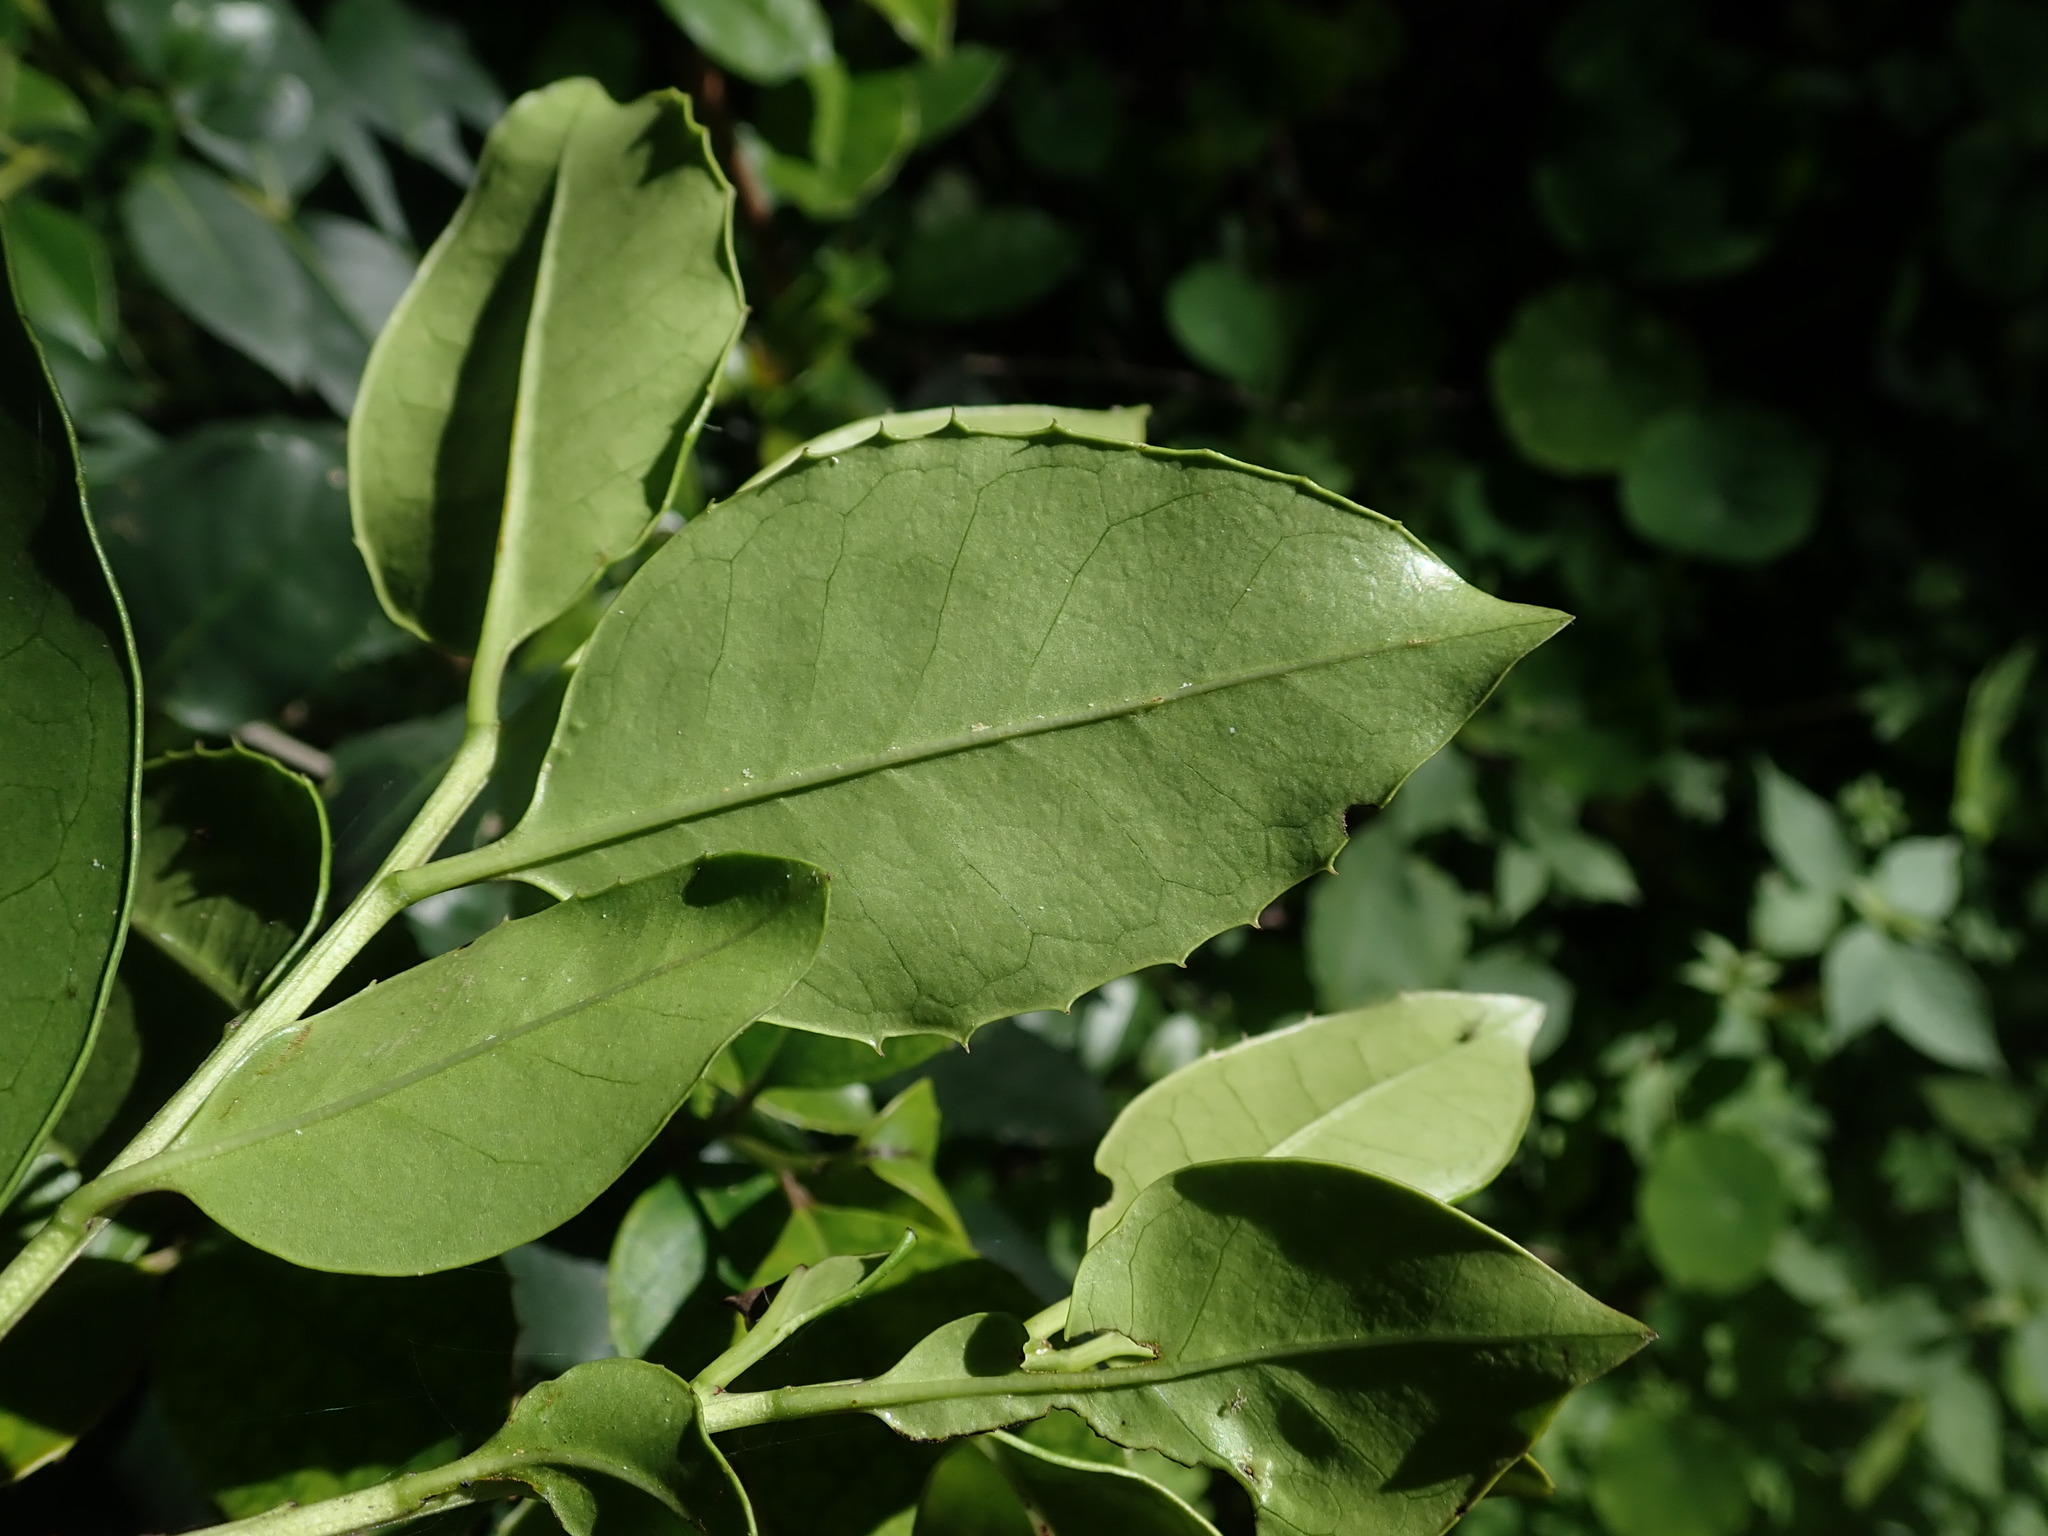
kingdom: Plantae
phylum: Tracheophyta
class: Magnoliopsida
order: Aquifoliales
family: Aquifoliaceae
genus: Ilex
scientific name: Ilex canariensis
